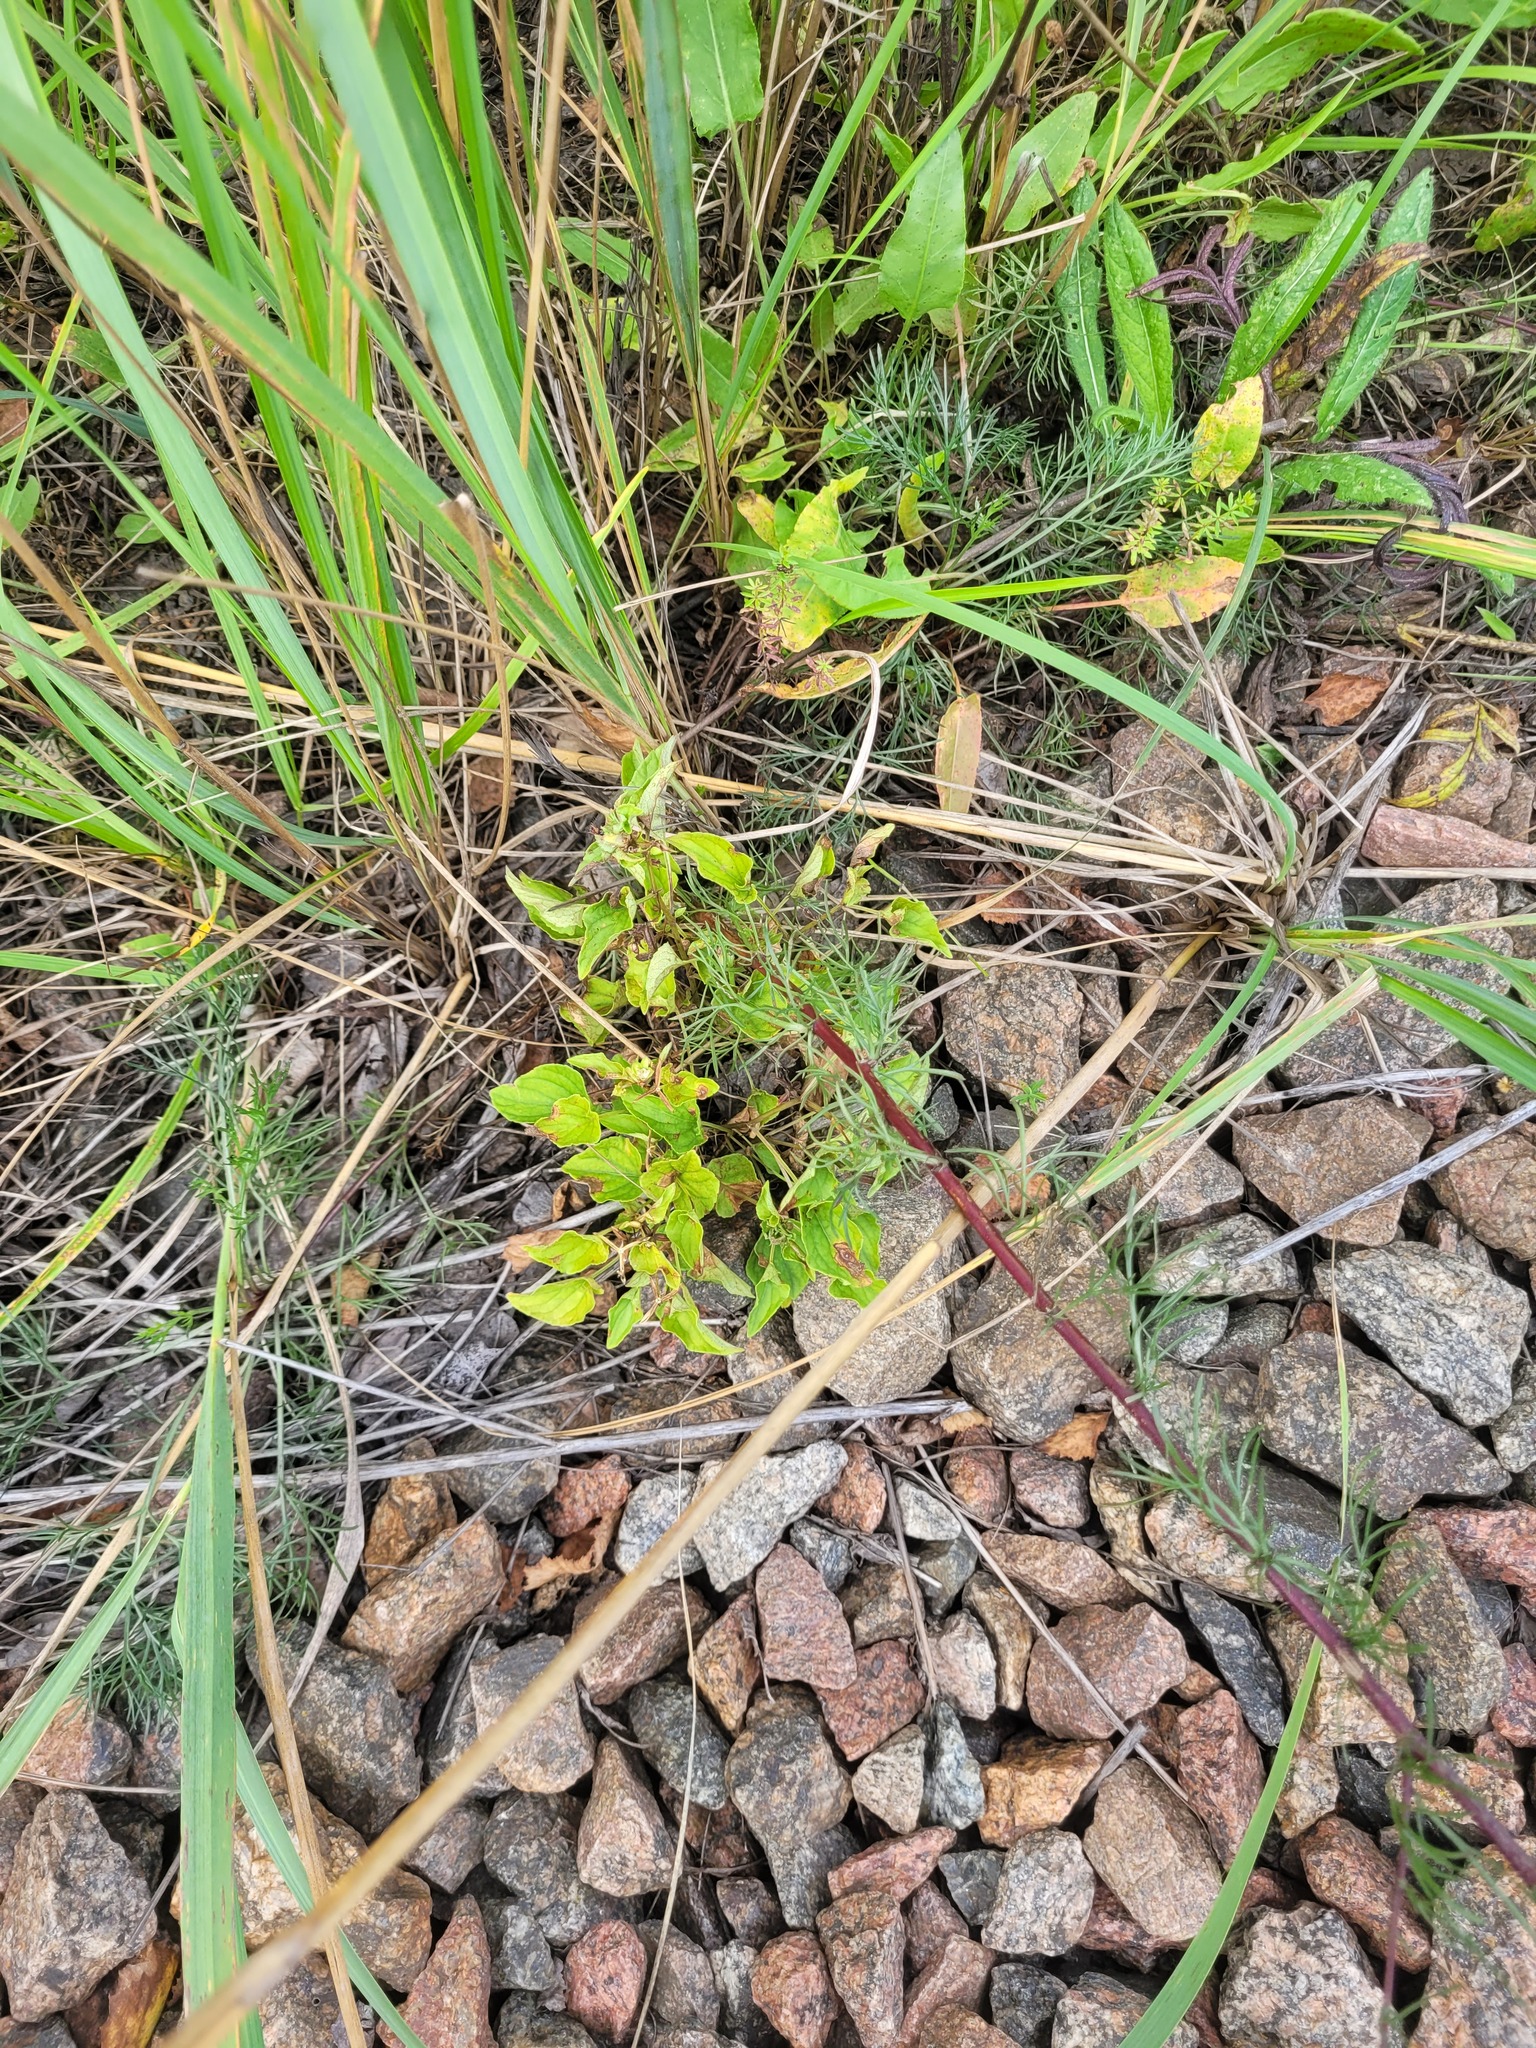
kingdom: Plantae
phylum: Tracheophyta
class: Magnoliopsida
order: Malpighiales
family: Violaceae
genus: Viola
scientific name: Viola canina
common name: Heath dog-violet
